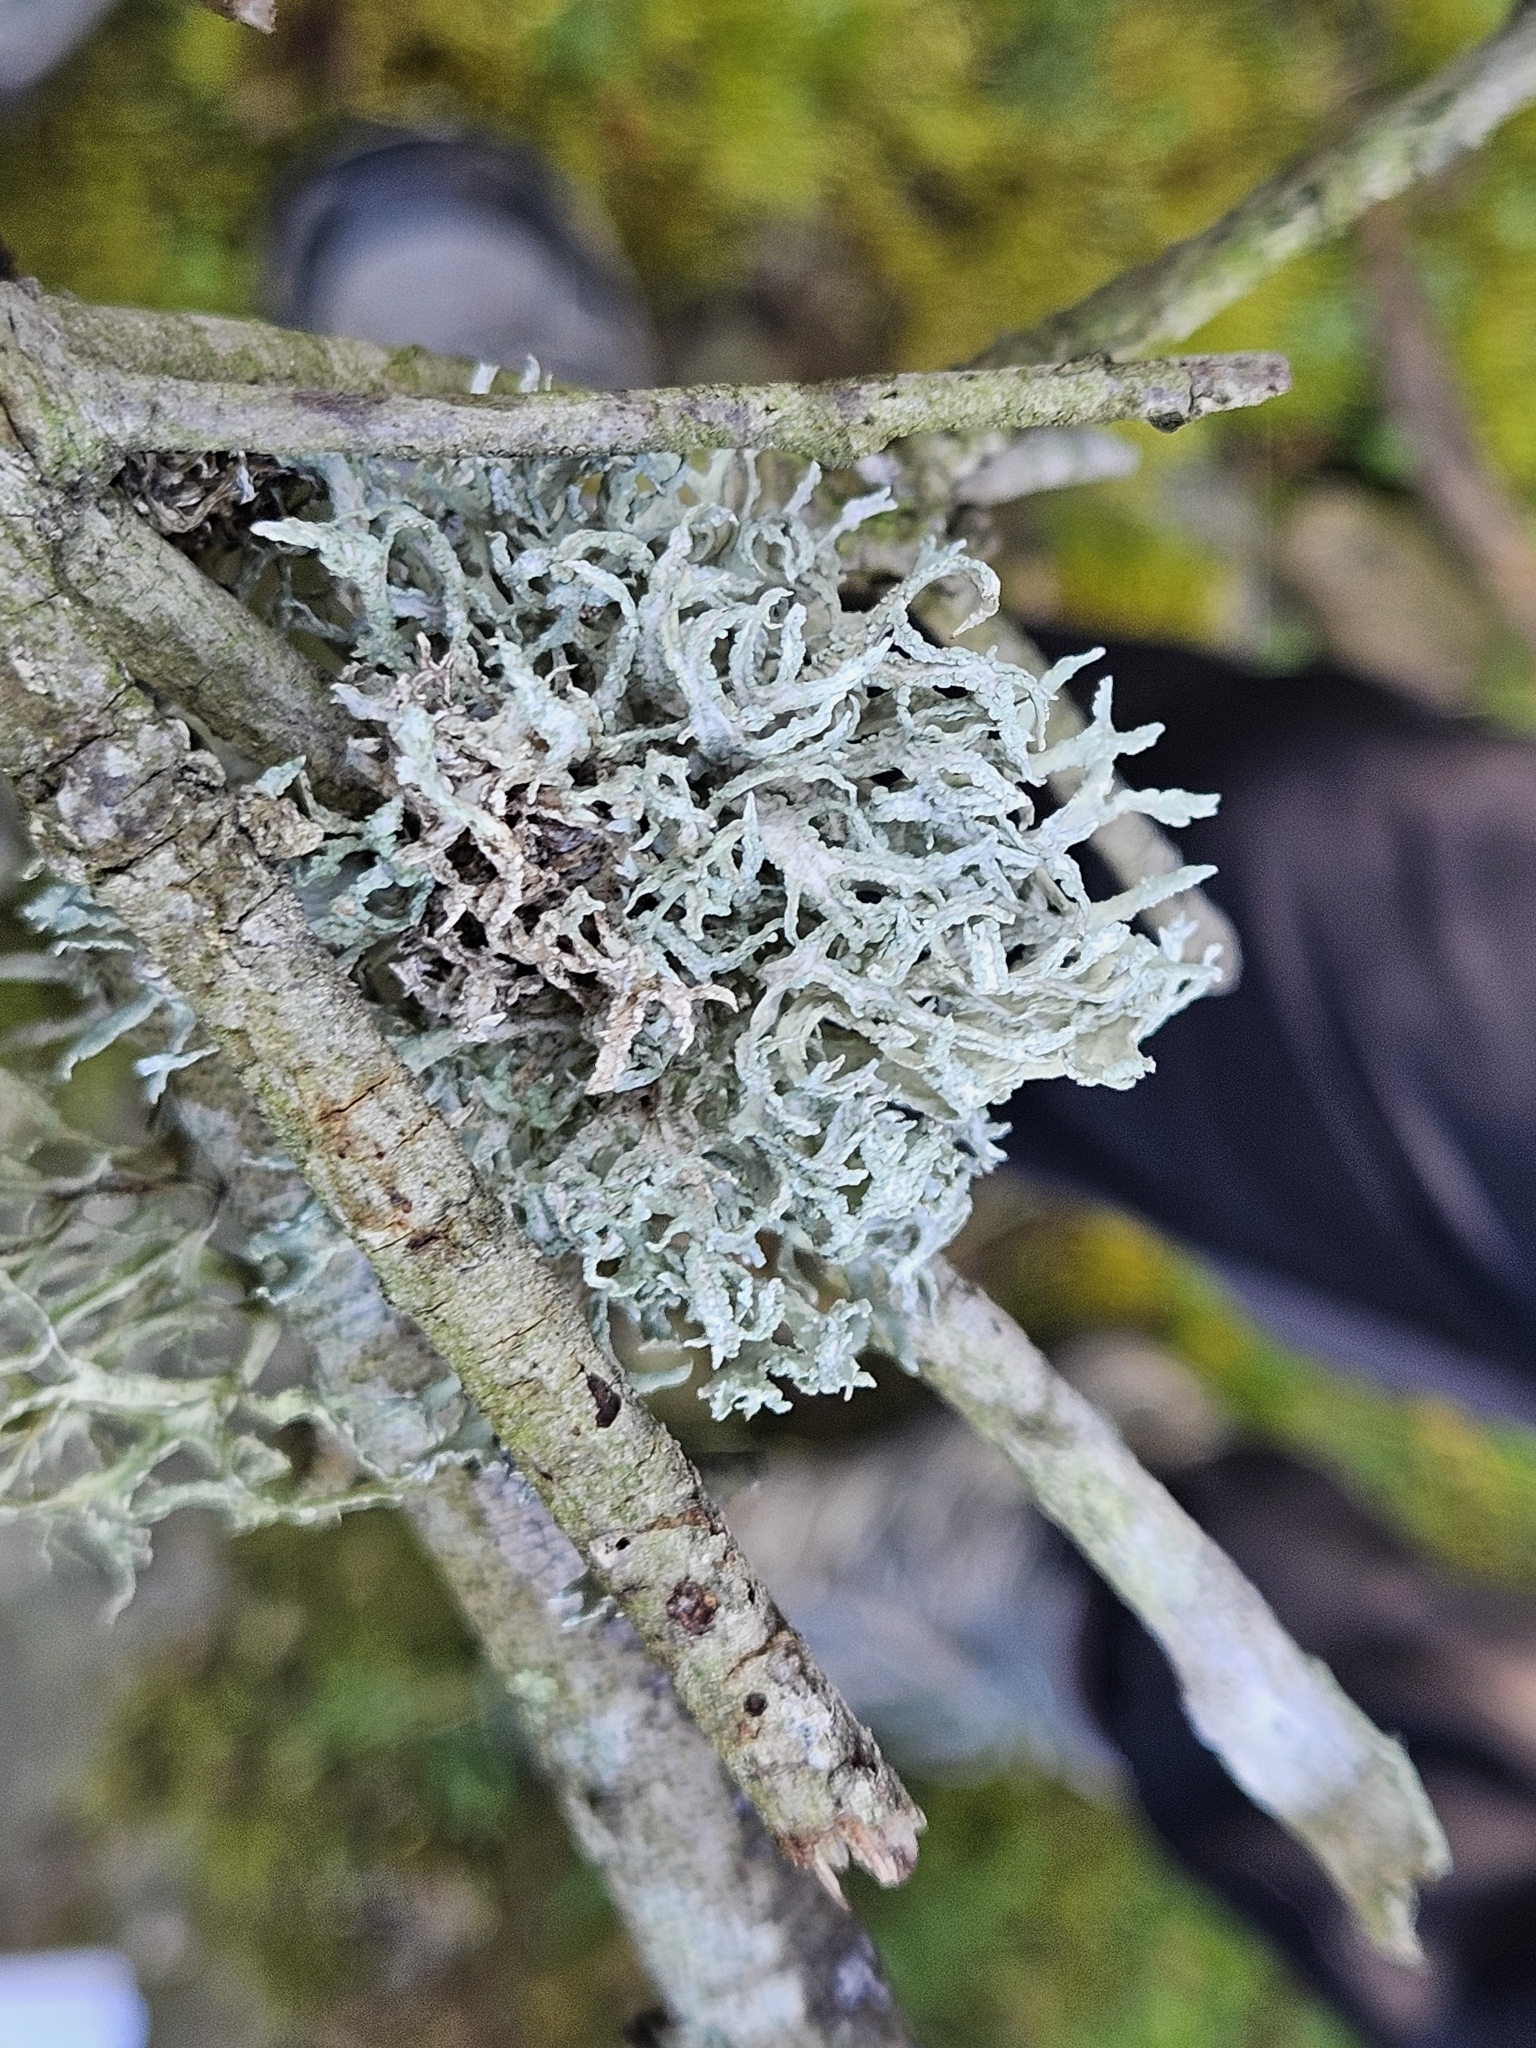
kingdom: Fungi
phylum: Ascomycota
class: Lecanoromycetes
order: Lecanorales
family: Parmeliaceae
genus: Evernia
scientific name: Evernia prunastri
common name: Oak moss
